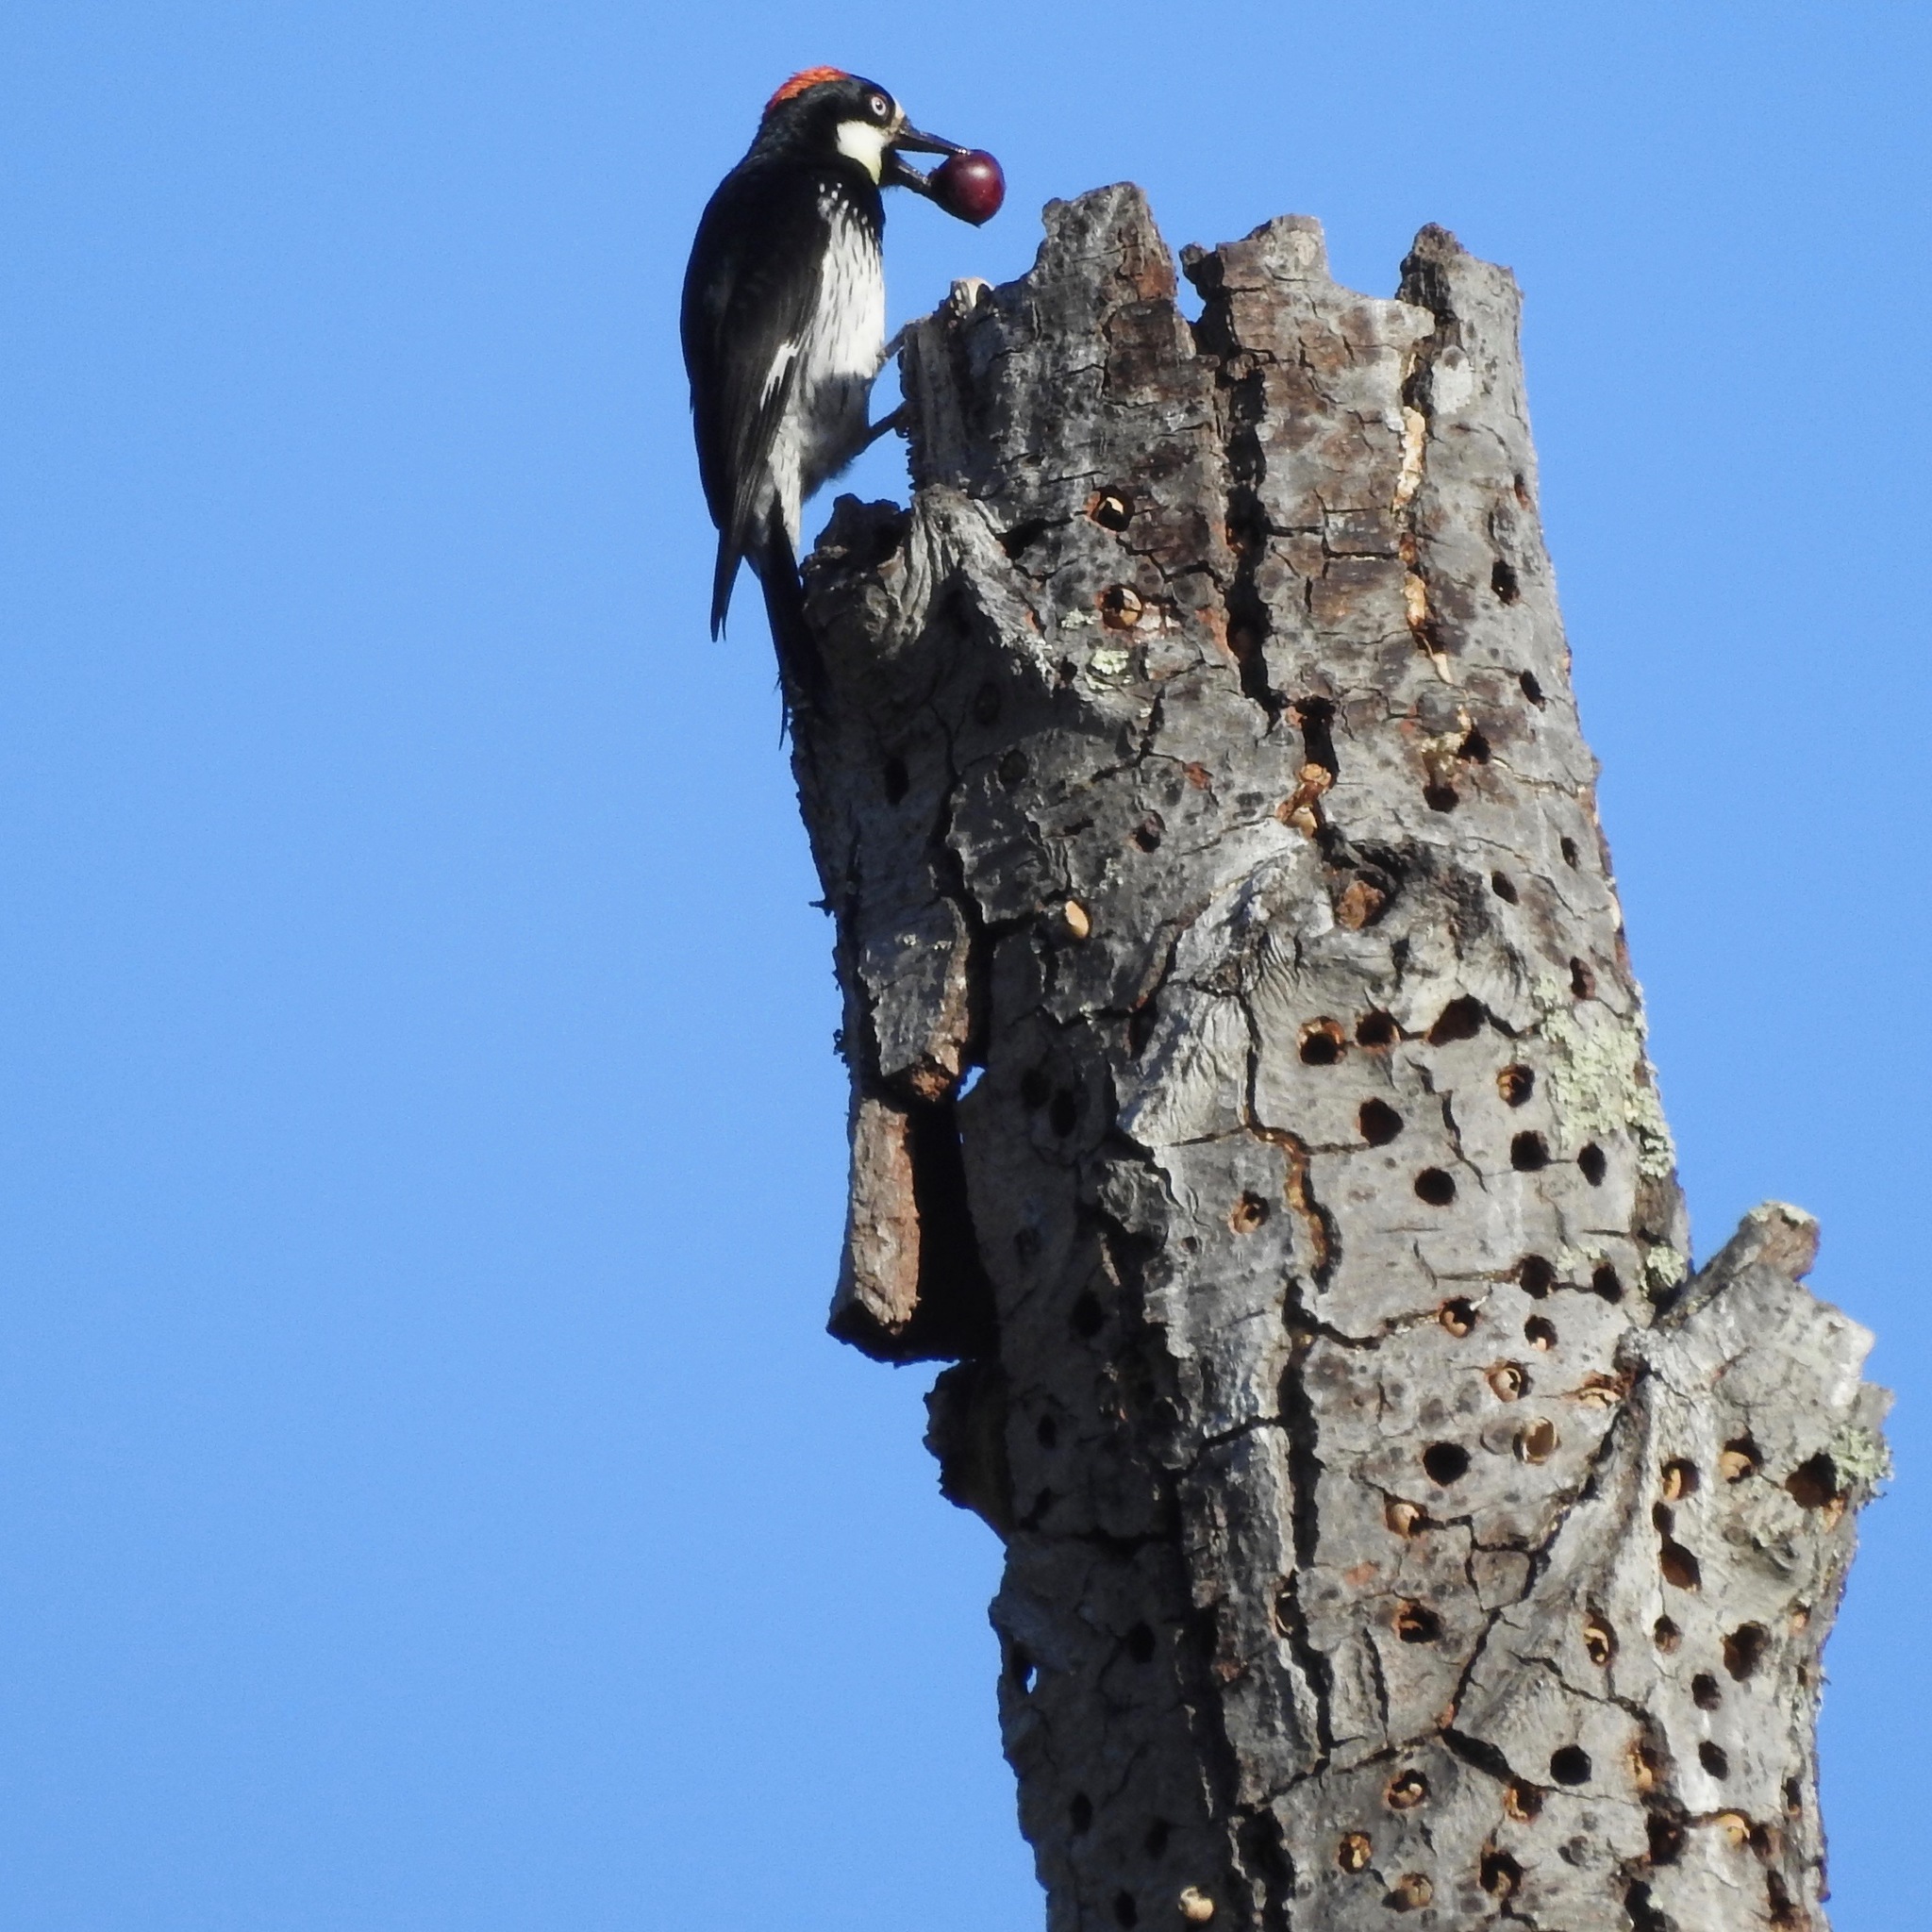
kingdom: Animalia
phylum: Chordata
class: Aves
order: Piciformes
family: Picidae
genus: Melanerpes
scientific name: Melanerpes formicivorus
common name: Acorn woodpecker
